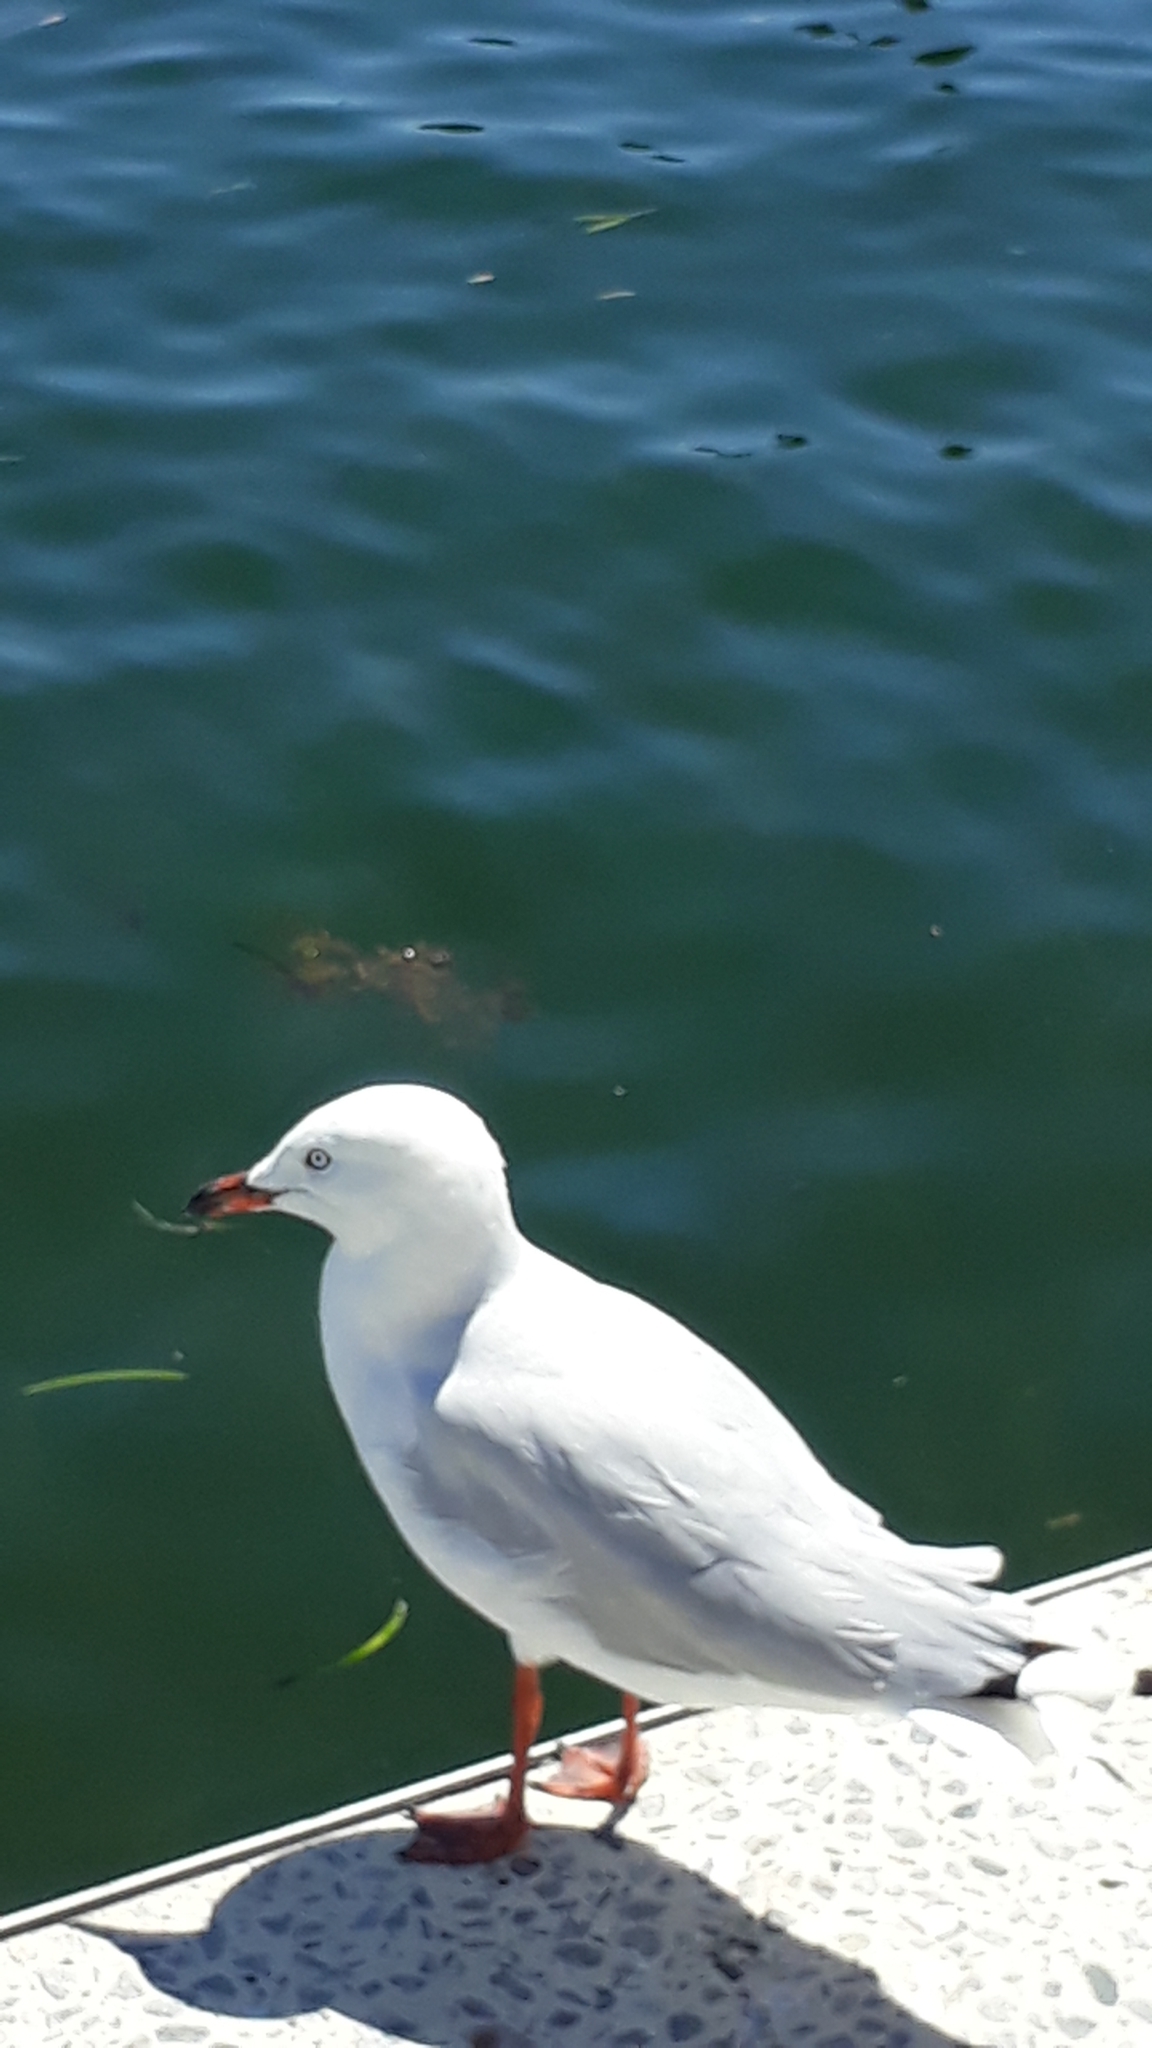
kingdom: Animalia
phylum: Chordata
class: Aves
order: Charadriiformes
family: Laridae
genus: Chroicocephalus
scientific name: Chroicocephalus novaehollandiae
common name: Silver gull
